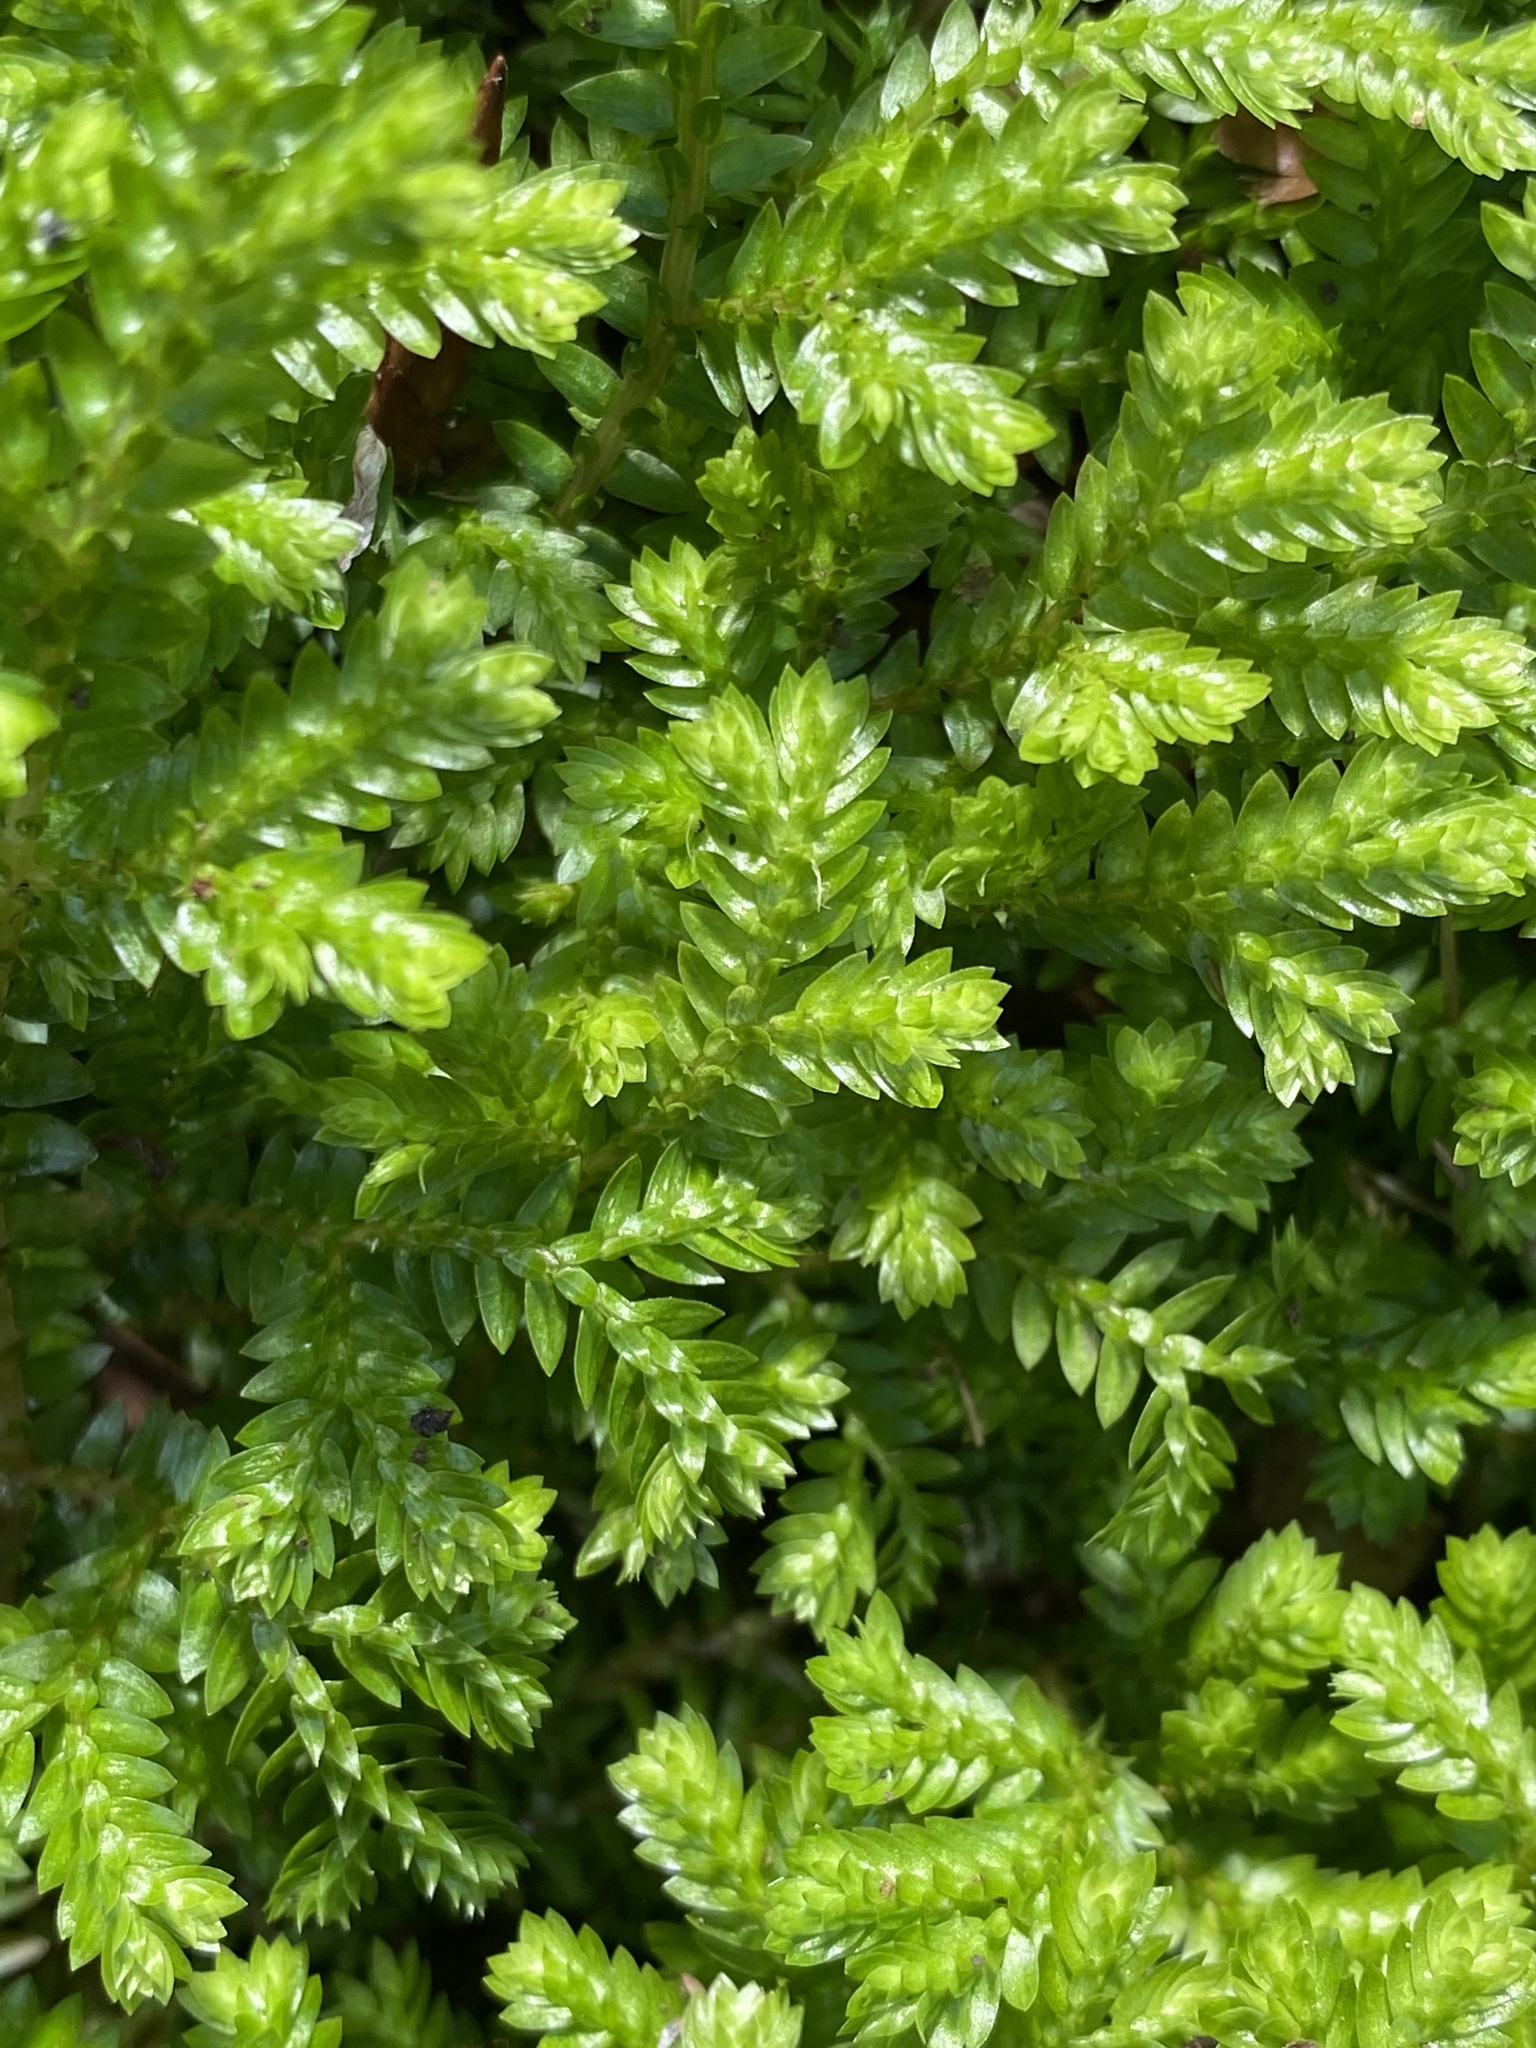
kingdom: Plantae
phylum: Tracheophyta
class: Lycopodiopsida
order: Selaginellales
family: Selaginellaceae
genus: Selaginella
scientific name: Selaginella kraussiana
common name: Krauss' spikemoss
